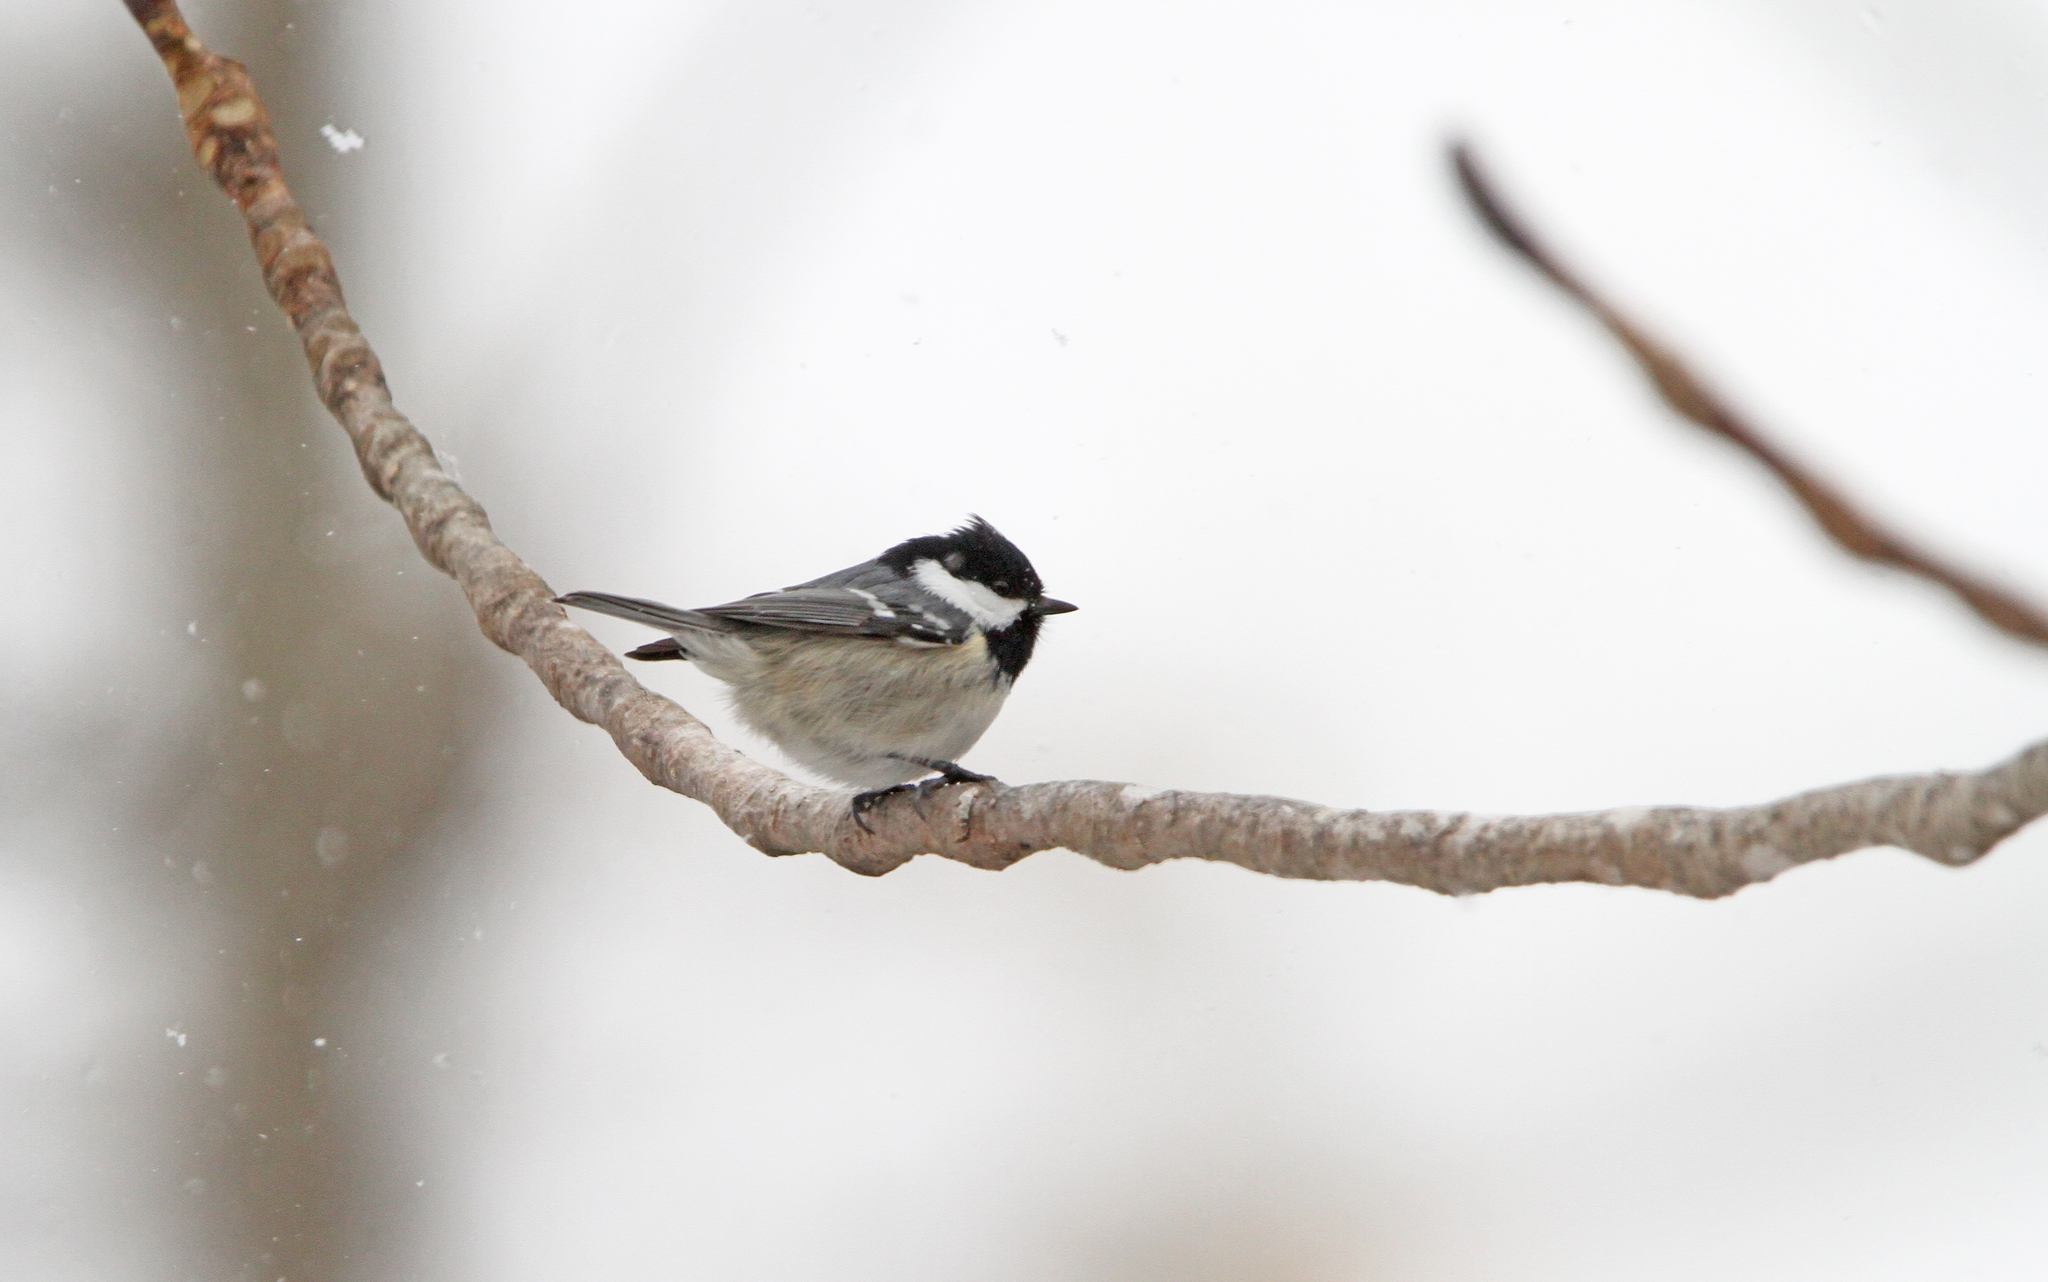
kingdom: Animalia
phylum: Chordata
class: Aves
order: Passeriformes
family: Paridae
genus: Periparus
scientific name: Periparus ater
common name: Coal tit
